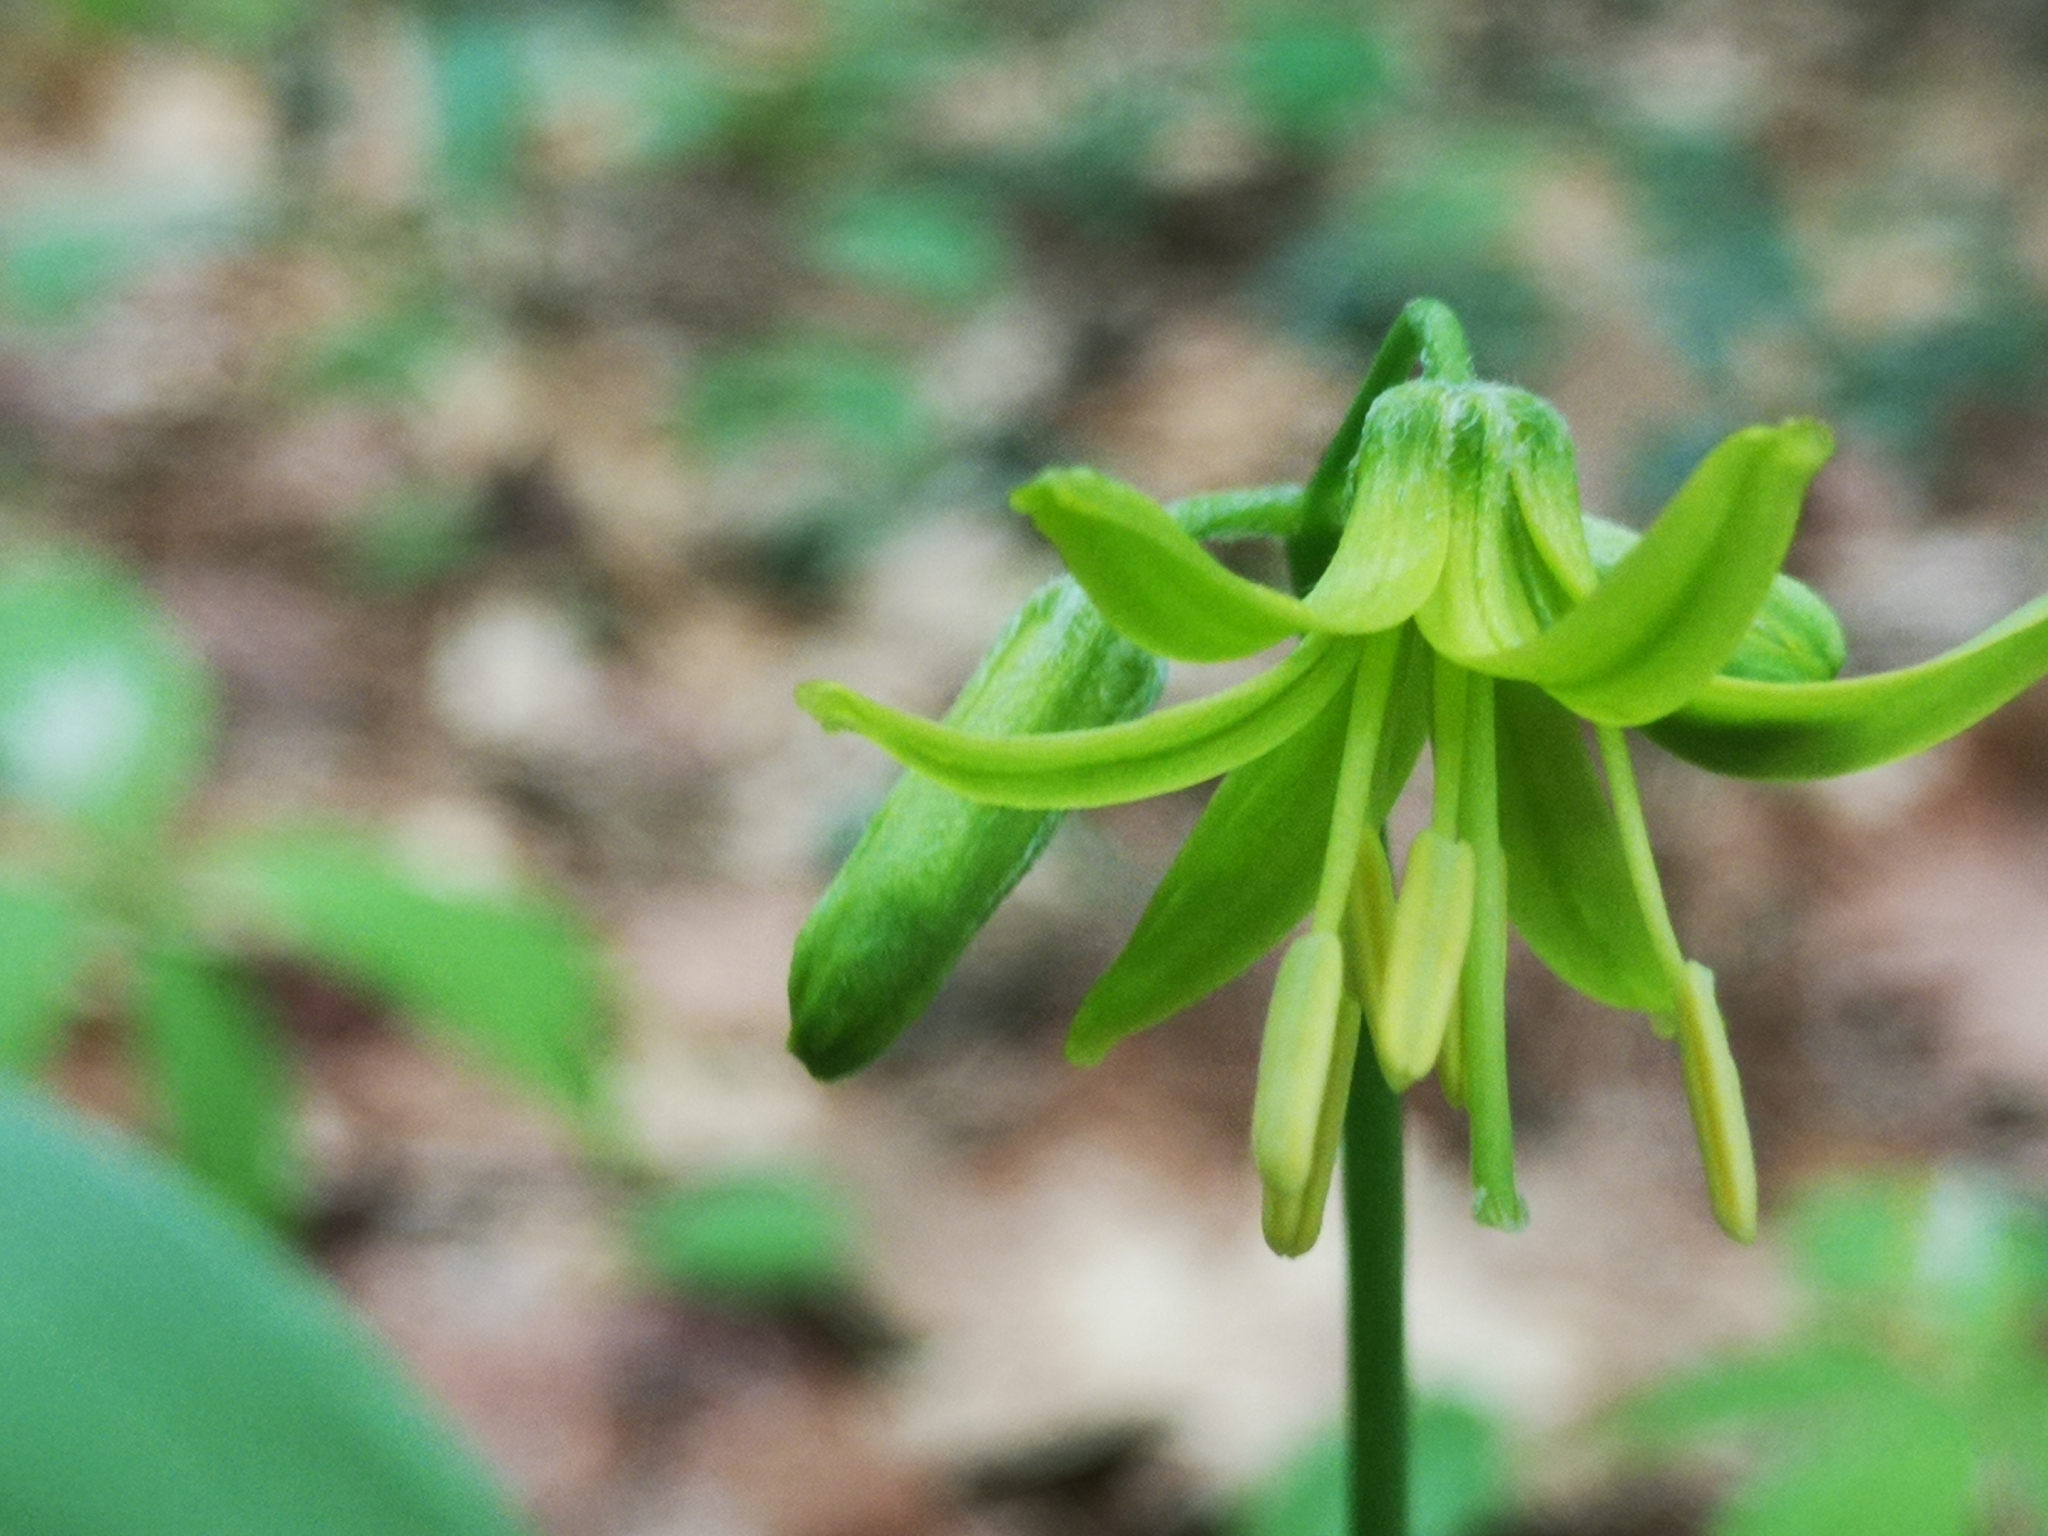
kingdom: Plantae
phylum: Tracheophyta
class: Liliopsida
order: Liliales
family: Liliaceae
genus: Clintonia
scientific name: Clintonia borealis
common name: Yellow clintonia
